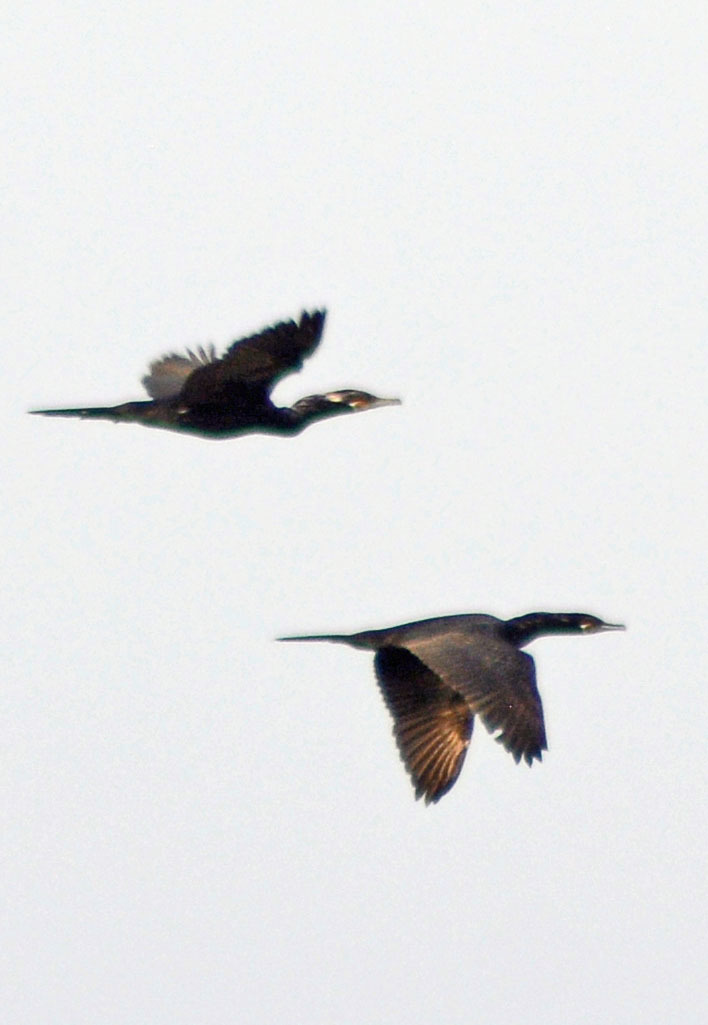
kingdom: Animalia
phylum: Chordata
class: Aves
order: Suliformes
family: Phalacrocoracidae
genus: Phalacrocorax
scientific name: Phalacrocorax brasilianus
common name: Neotropic cormorant
